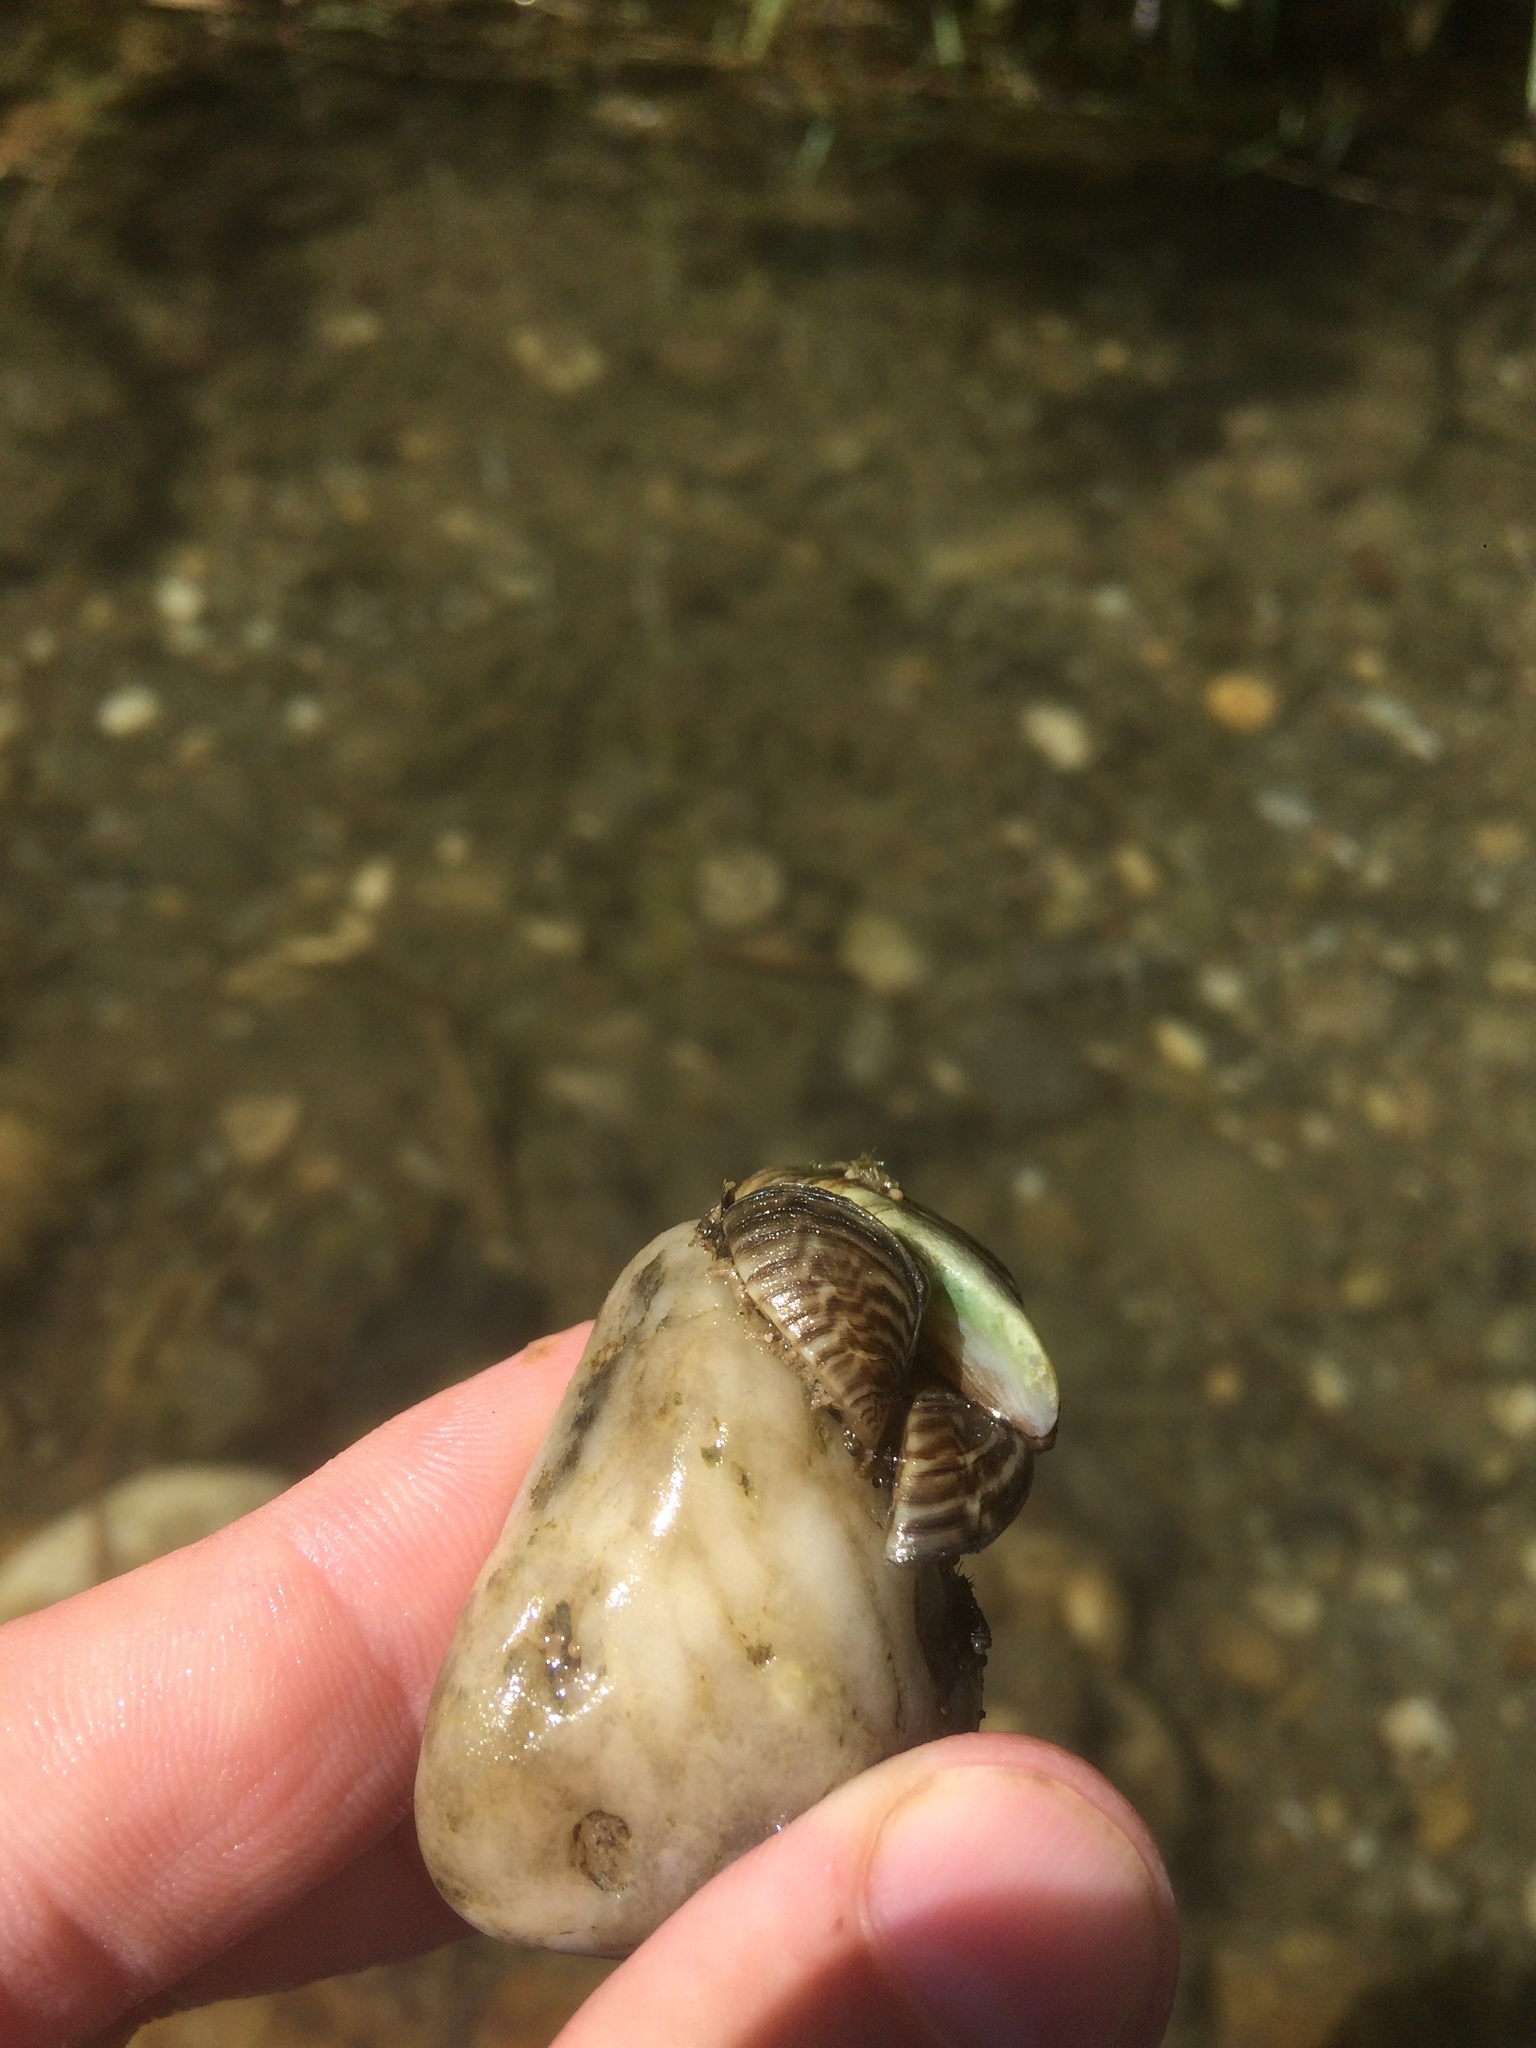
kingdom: Animalia
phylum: Mollusca
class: Bivalvia
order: Myida
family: Dreissenidae
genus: Dreissena
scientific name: Dreissena polymorpha
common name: Zebra mussel
